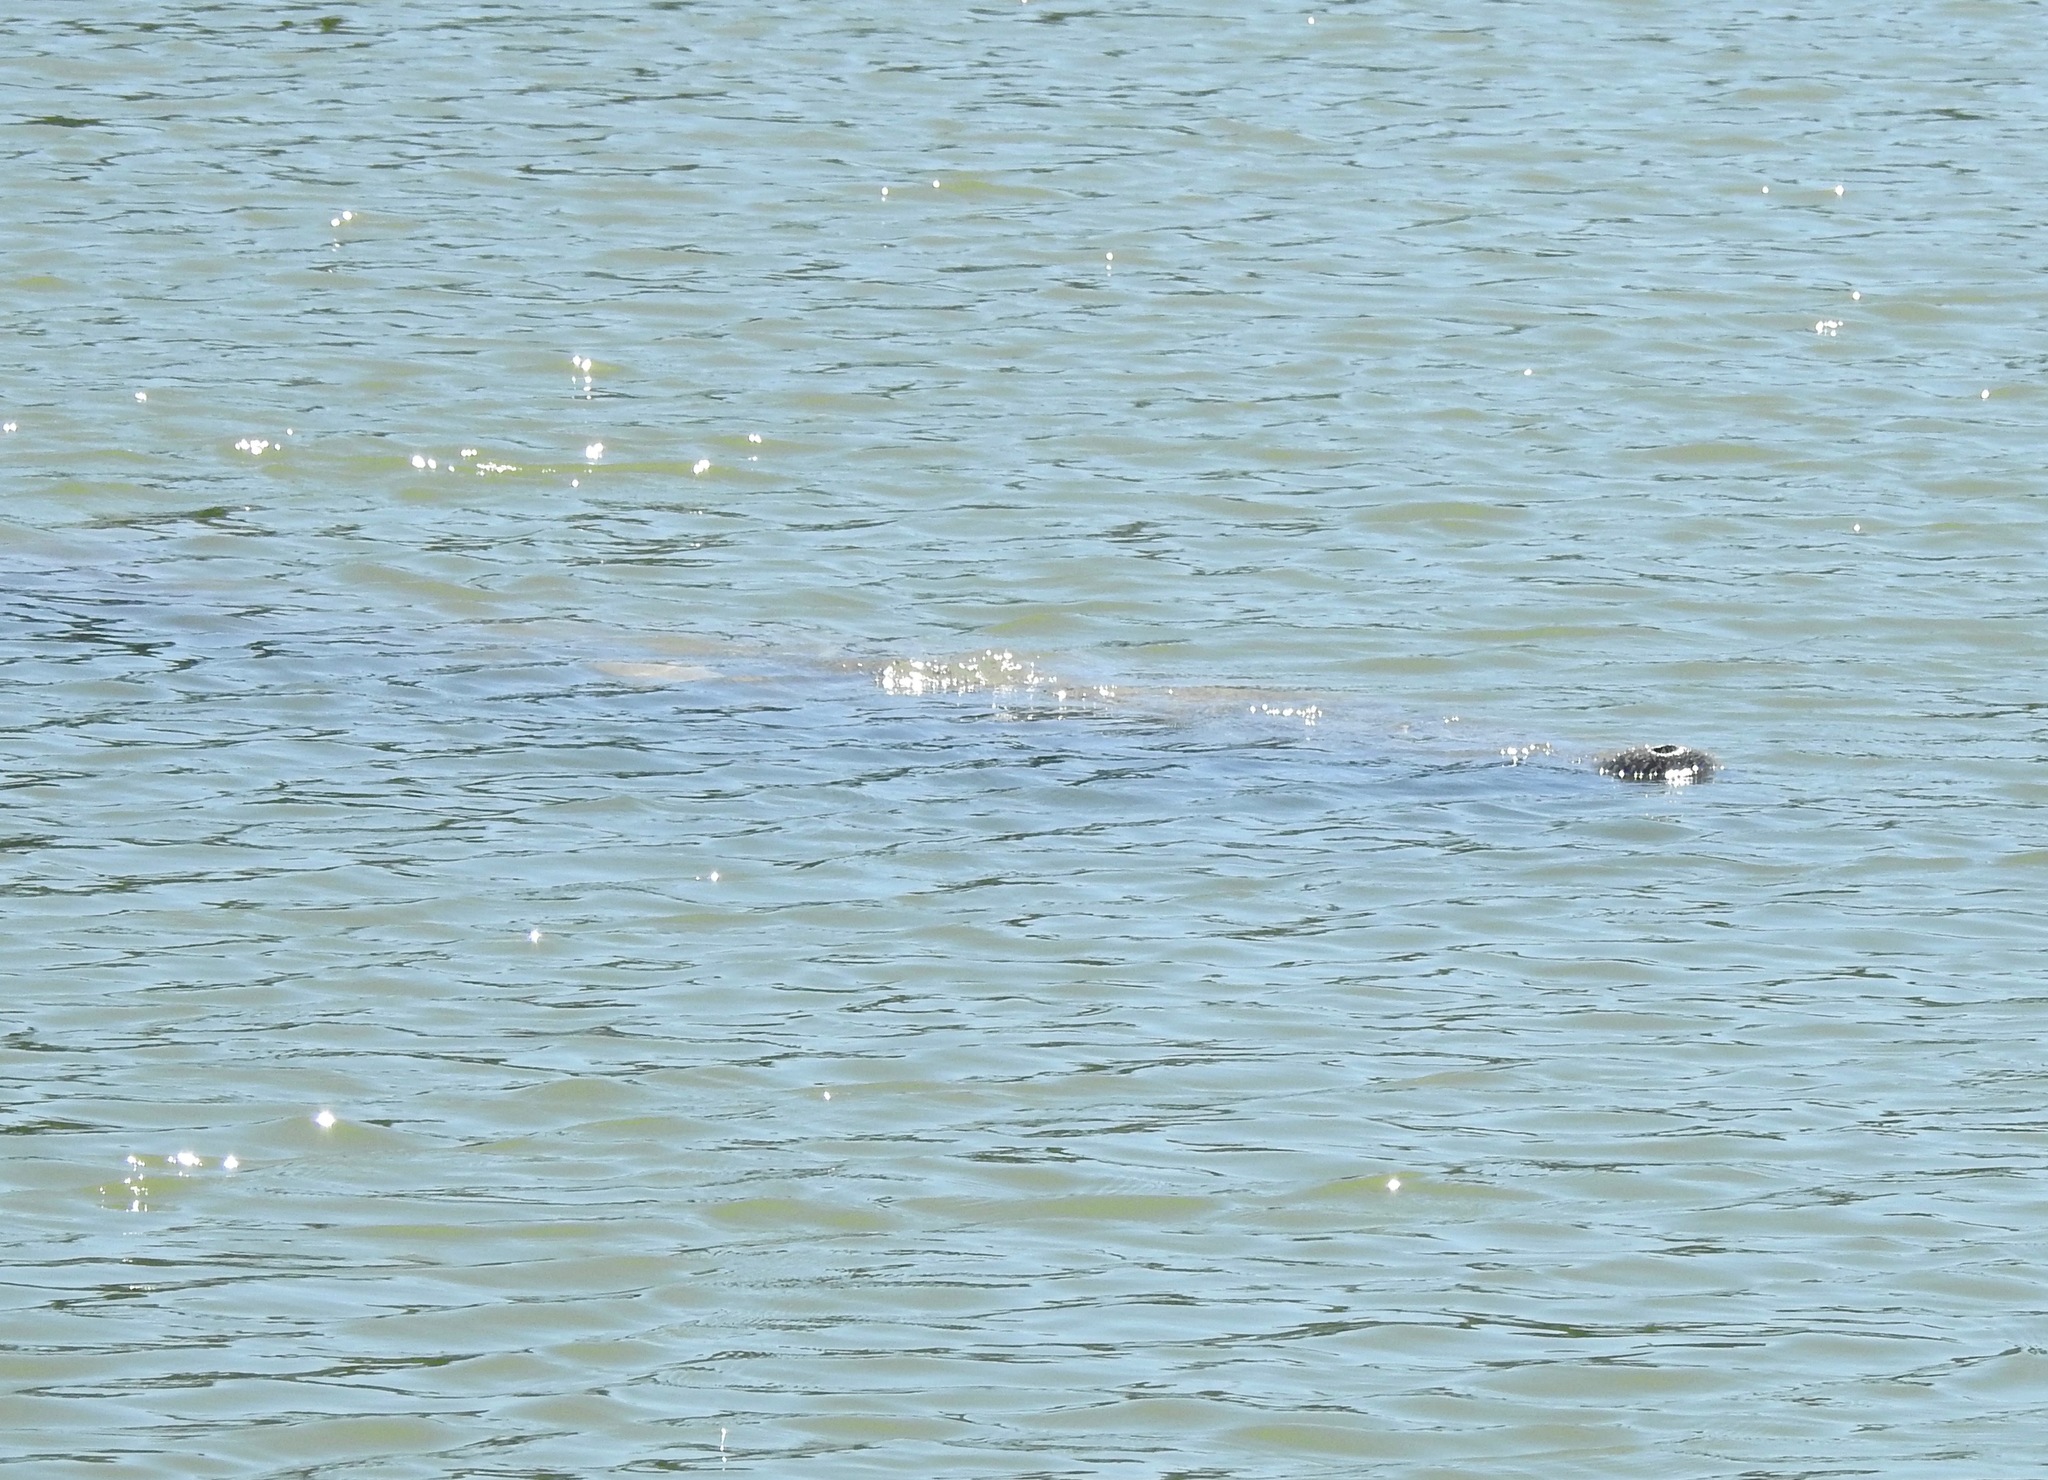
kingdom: Animalia
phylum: Chordata
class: Mammalia
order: Sirenia
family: Trichechidae
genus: Trichechus
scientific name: Trichechus manatus
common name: West indian manatee
